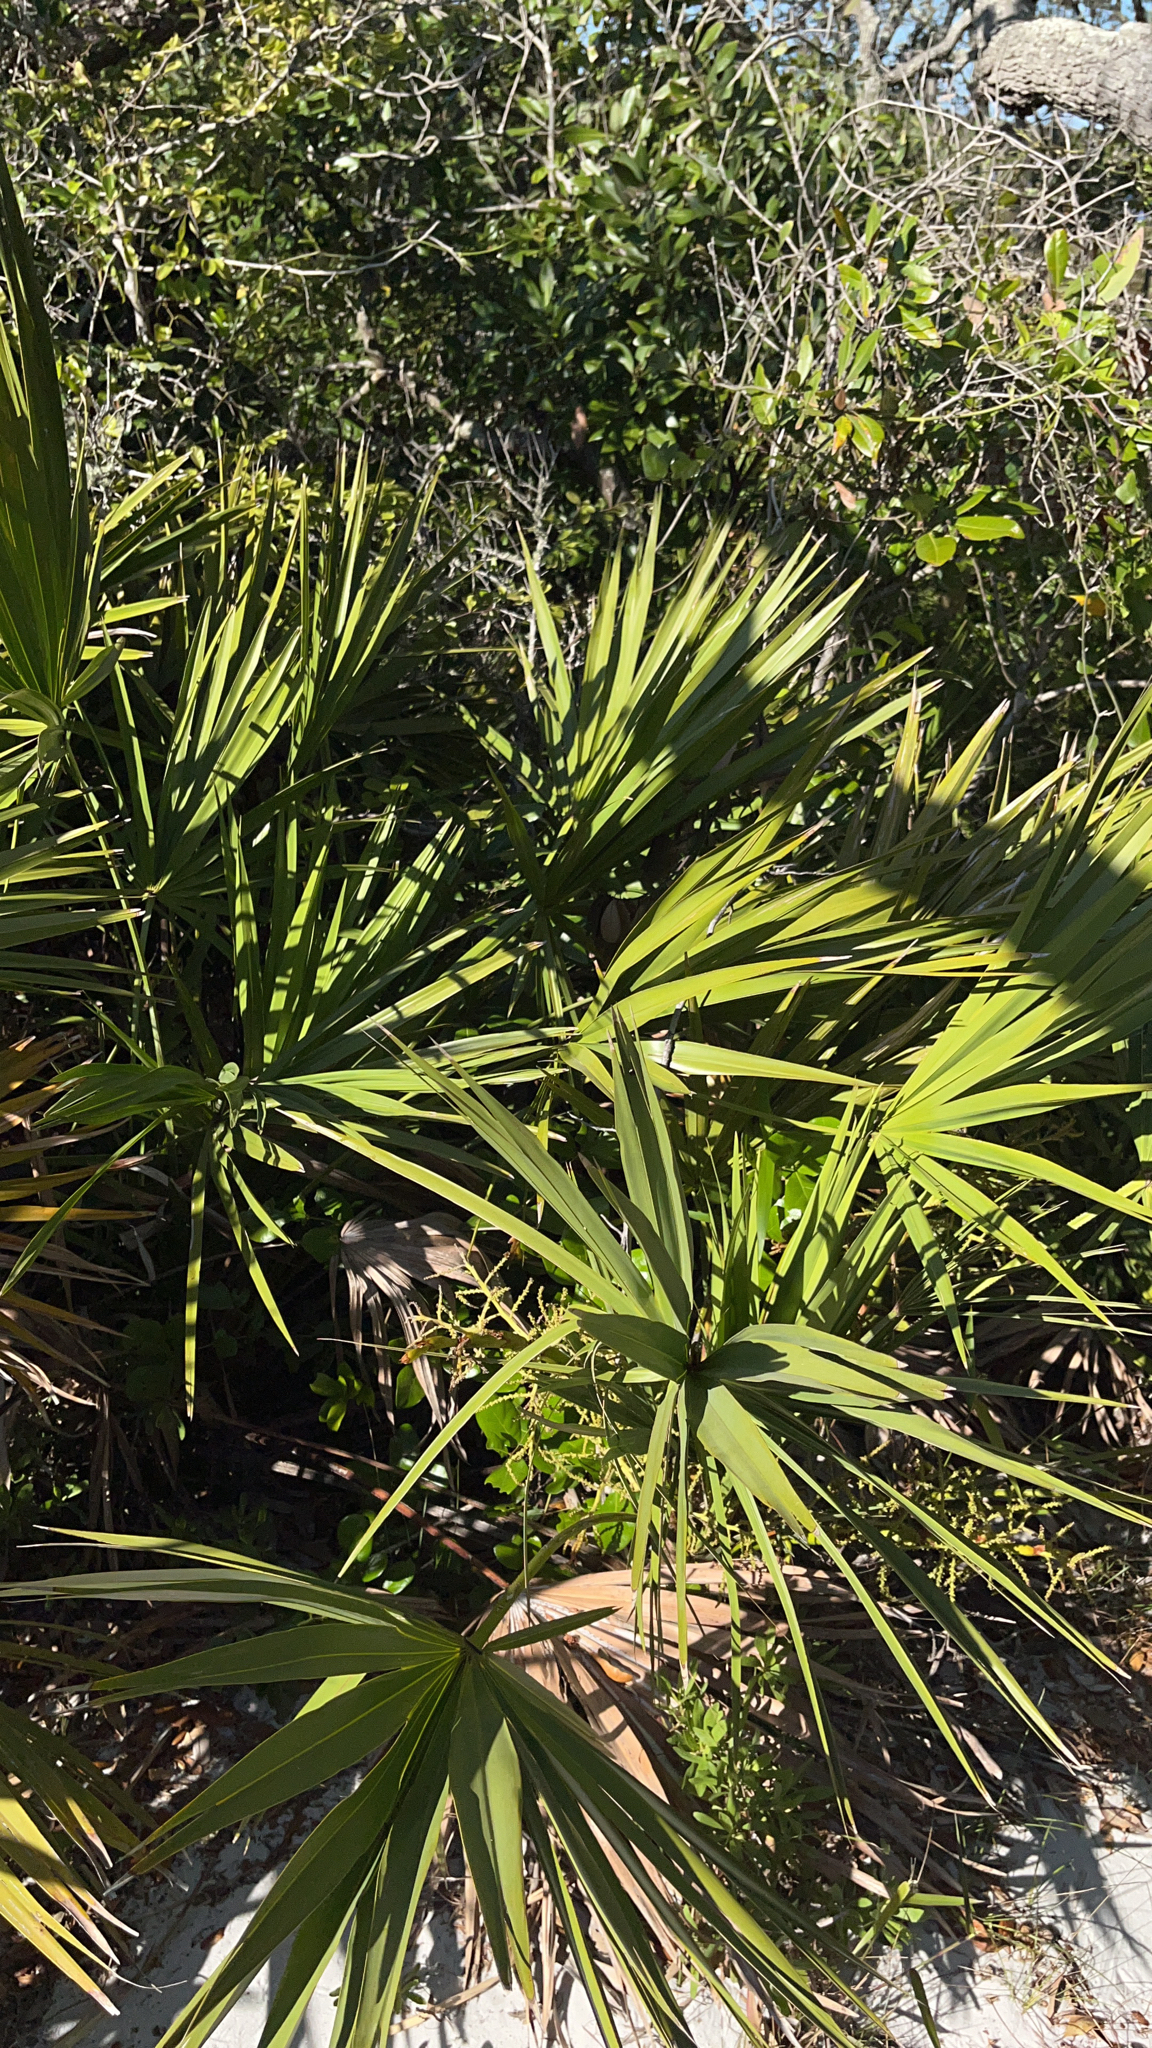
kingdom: Plantae
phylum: Tracheophyta
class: Liliopsida
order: Arecales
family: Arecaceae
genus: Serenoa
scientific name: Serenoa repens
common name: Saw-palmetto
